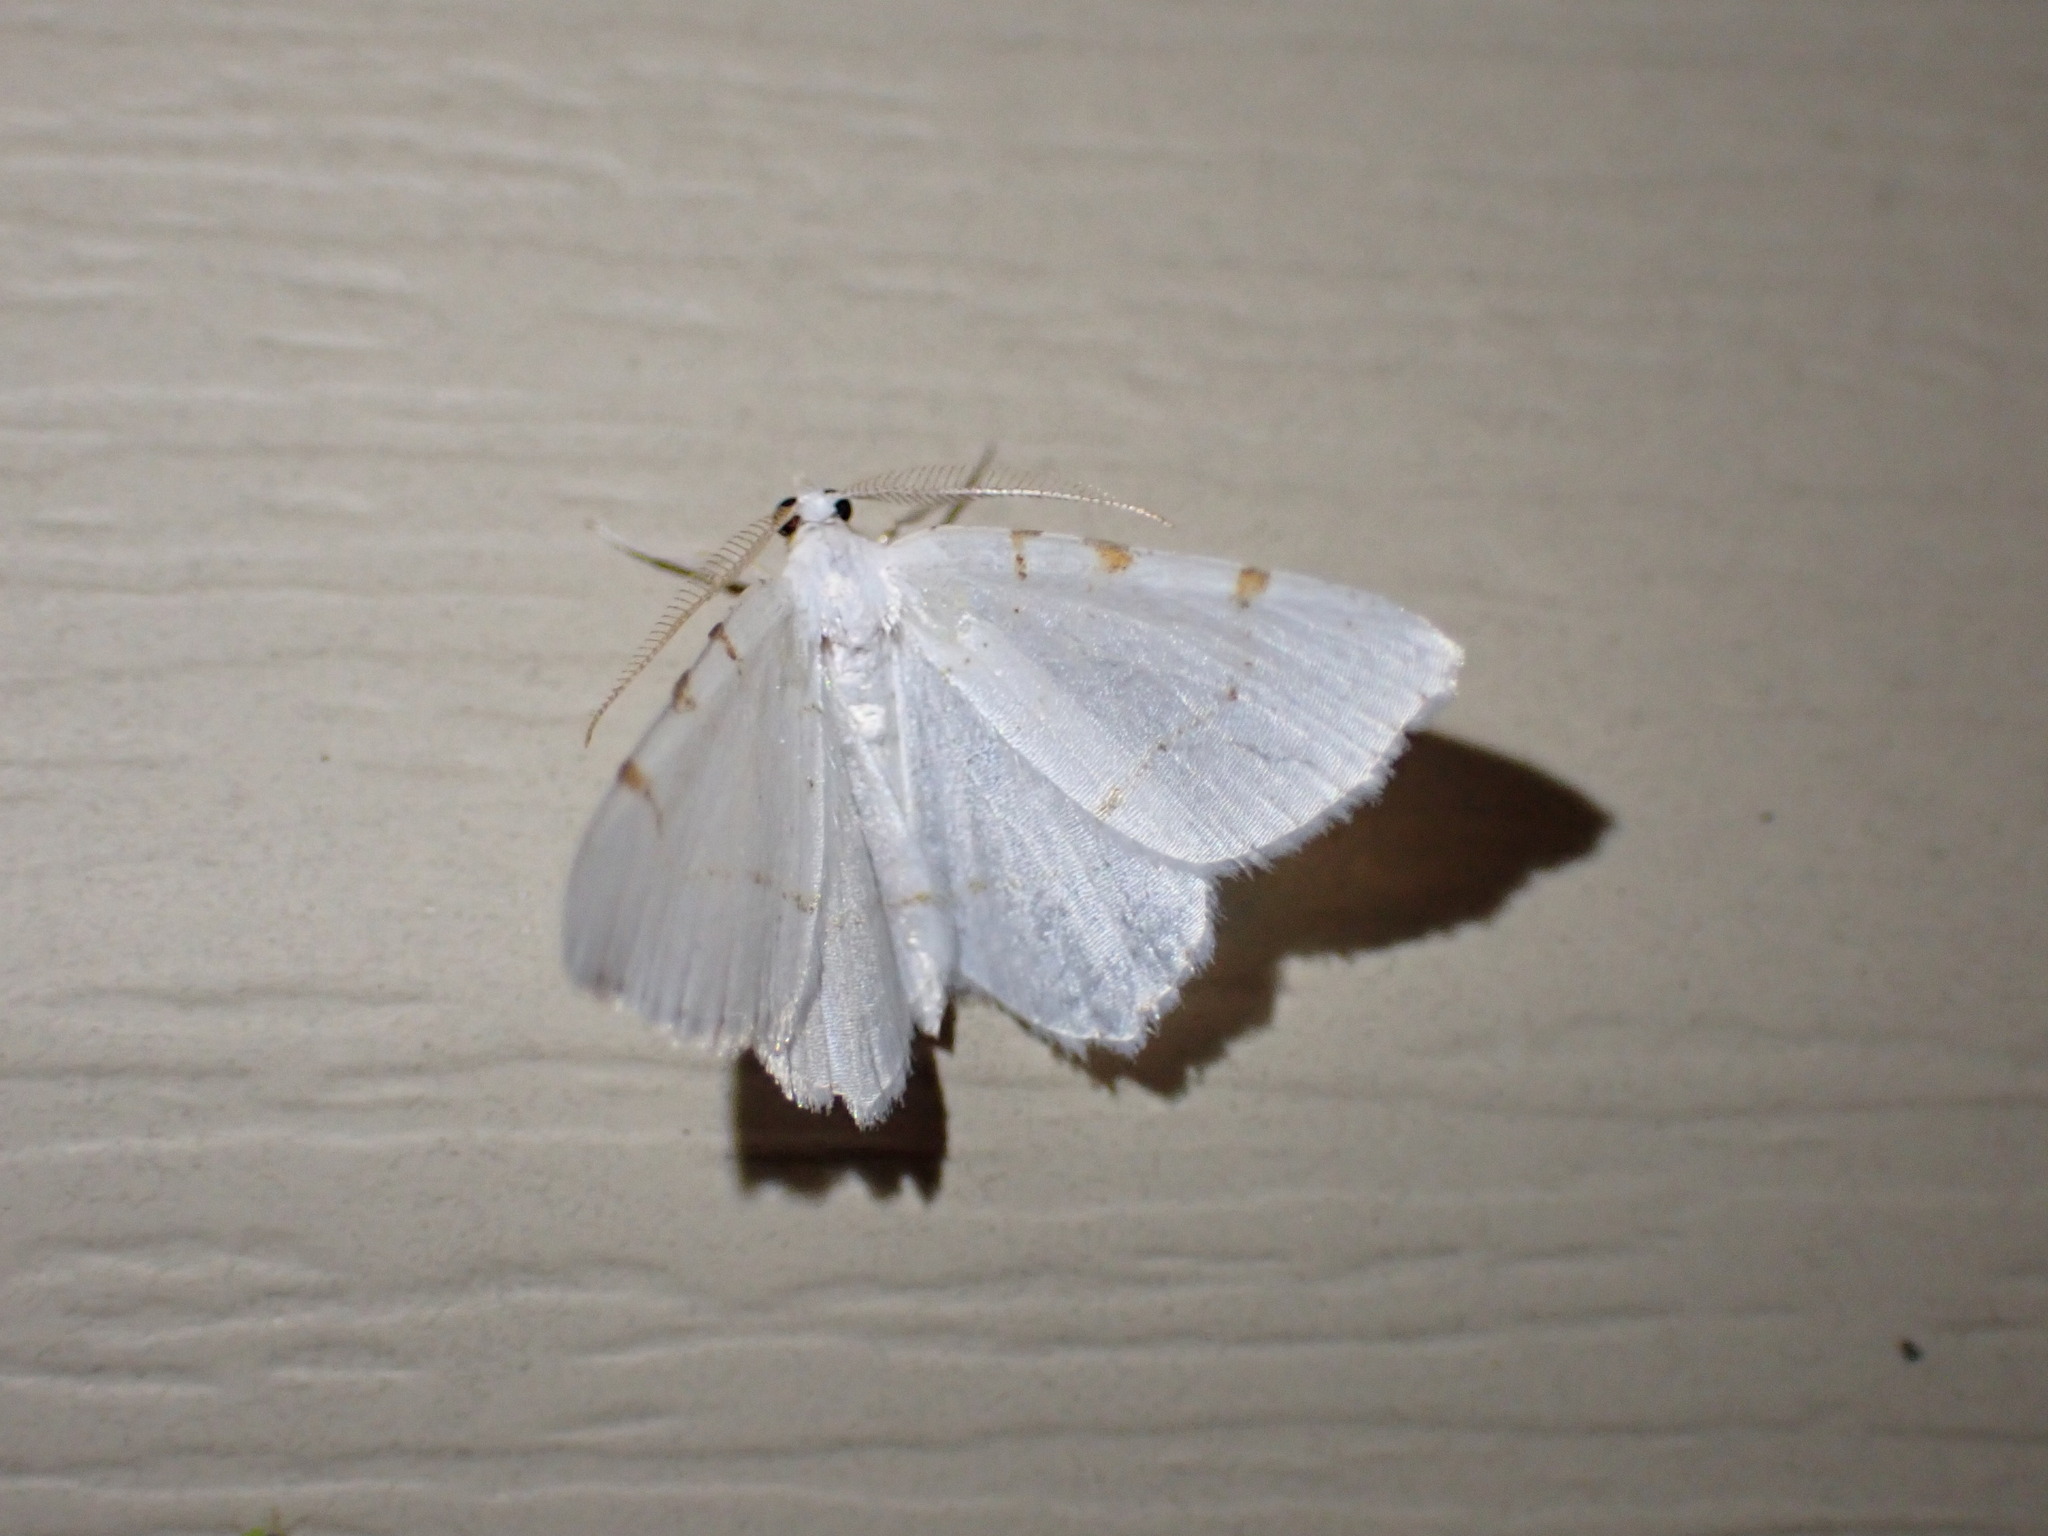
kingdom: Animalia
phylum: Arthropoda
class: Insecta
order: Lepidoptera
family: Geometridae
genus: Macaria
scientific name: Macaria pustularia
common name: Lesser maple spanworm moth
